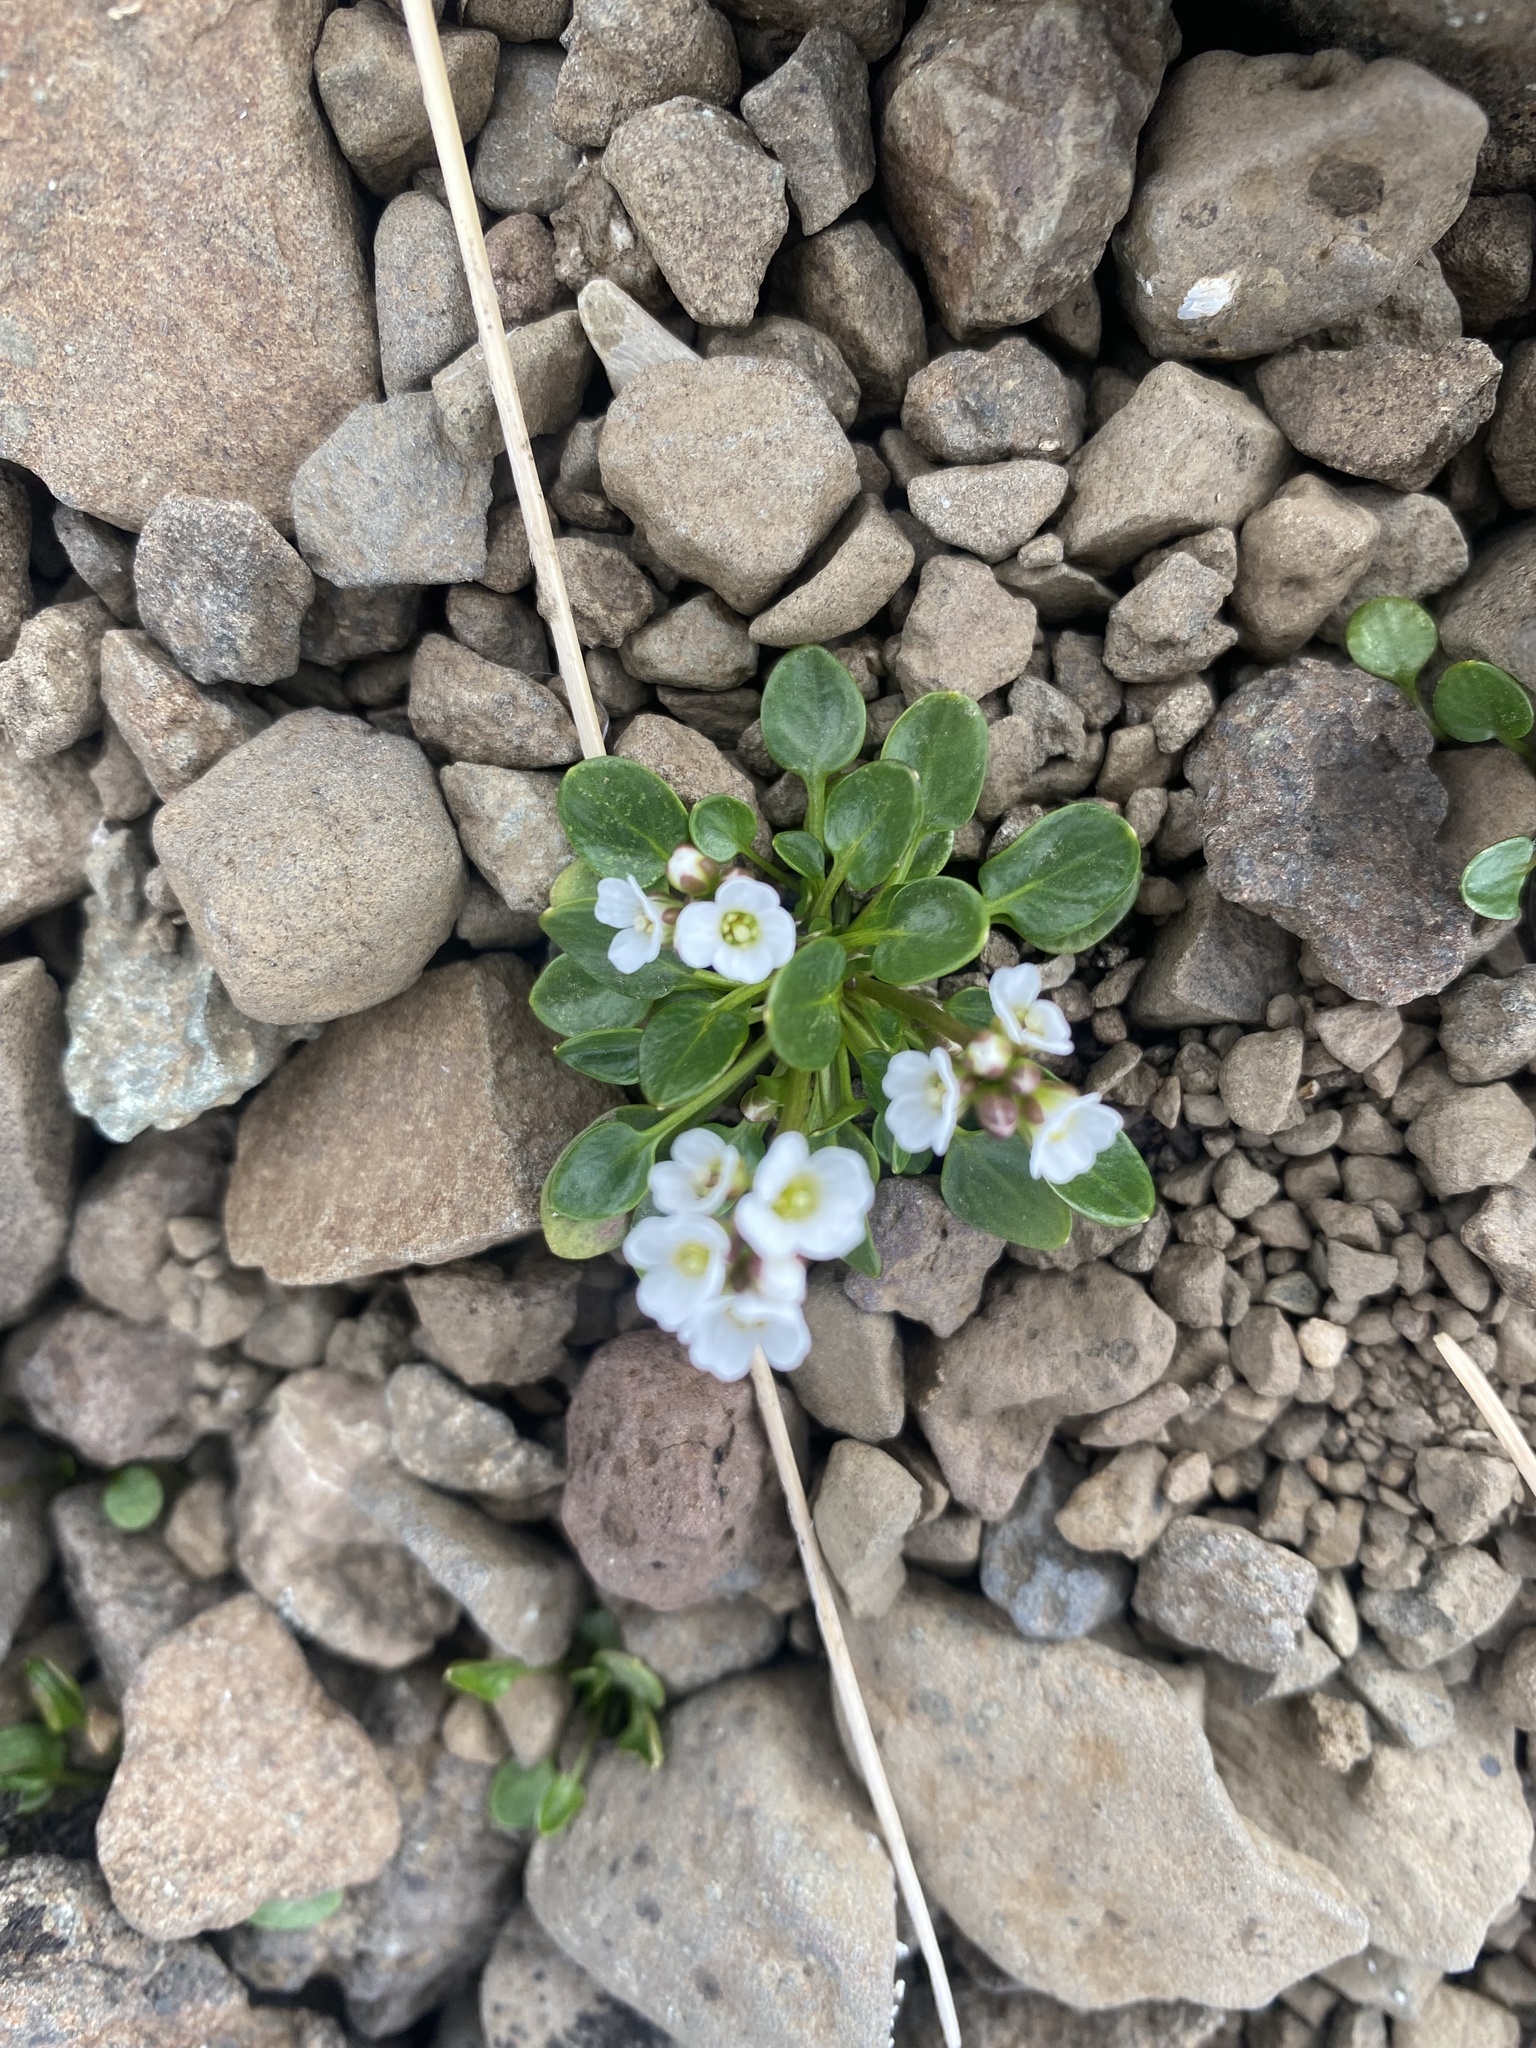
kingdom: Plantae
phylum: Tracheophyta
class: Magnoliopsida
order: Brassicales
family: Brassicaceae
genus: Cardamine
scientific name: Cardamine bellidifolia
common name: Alpine bittercress
